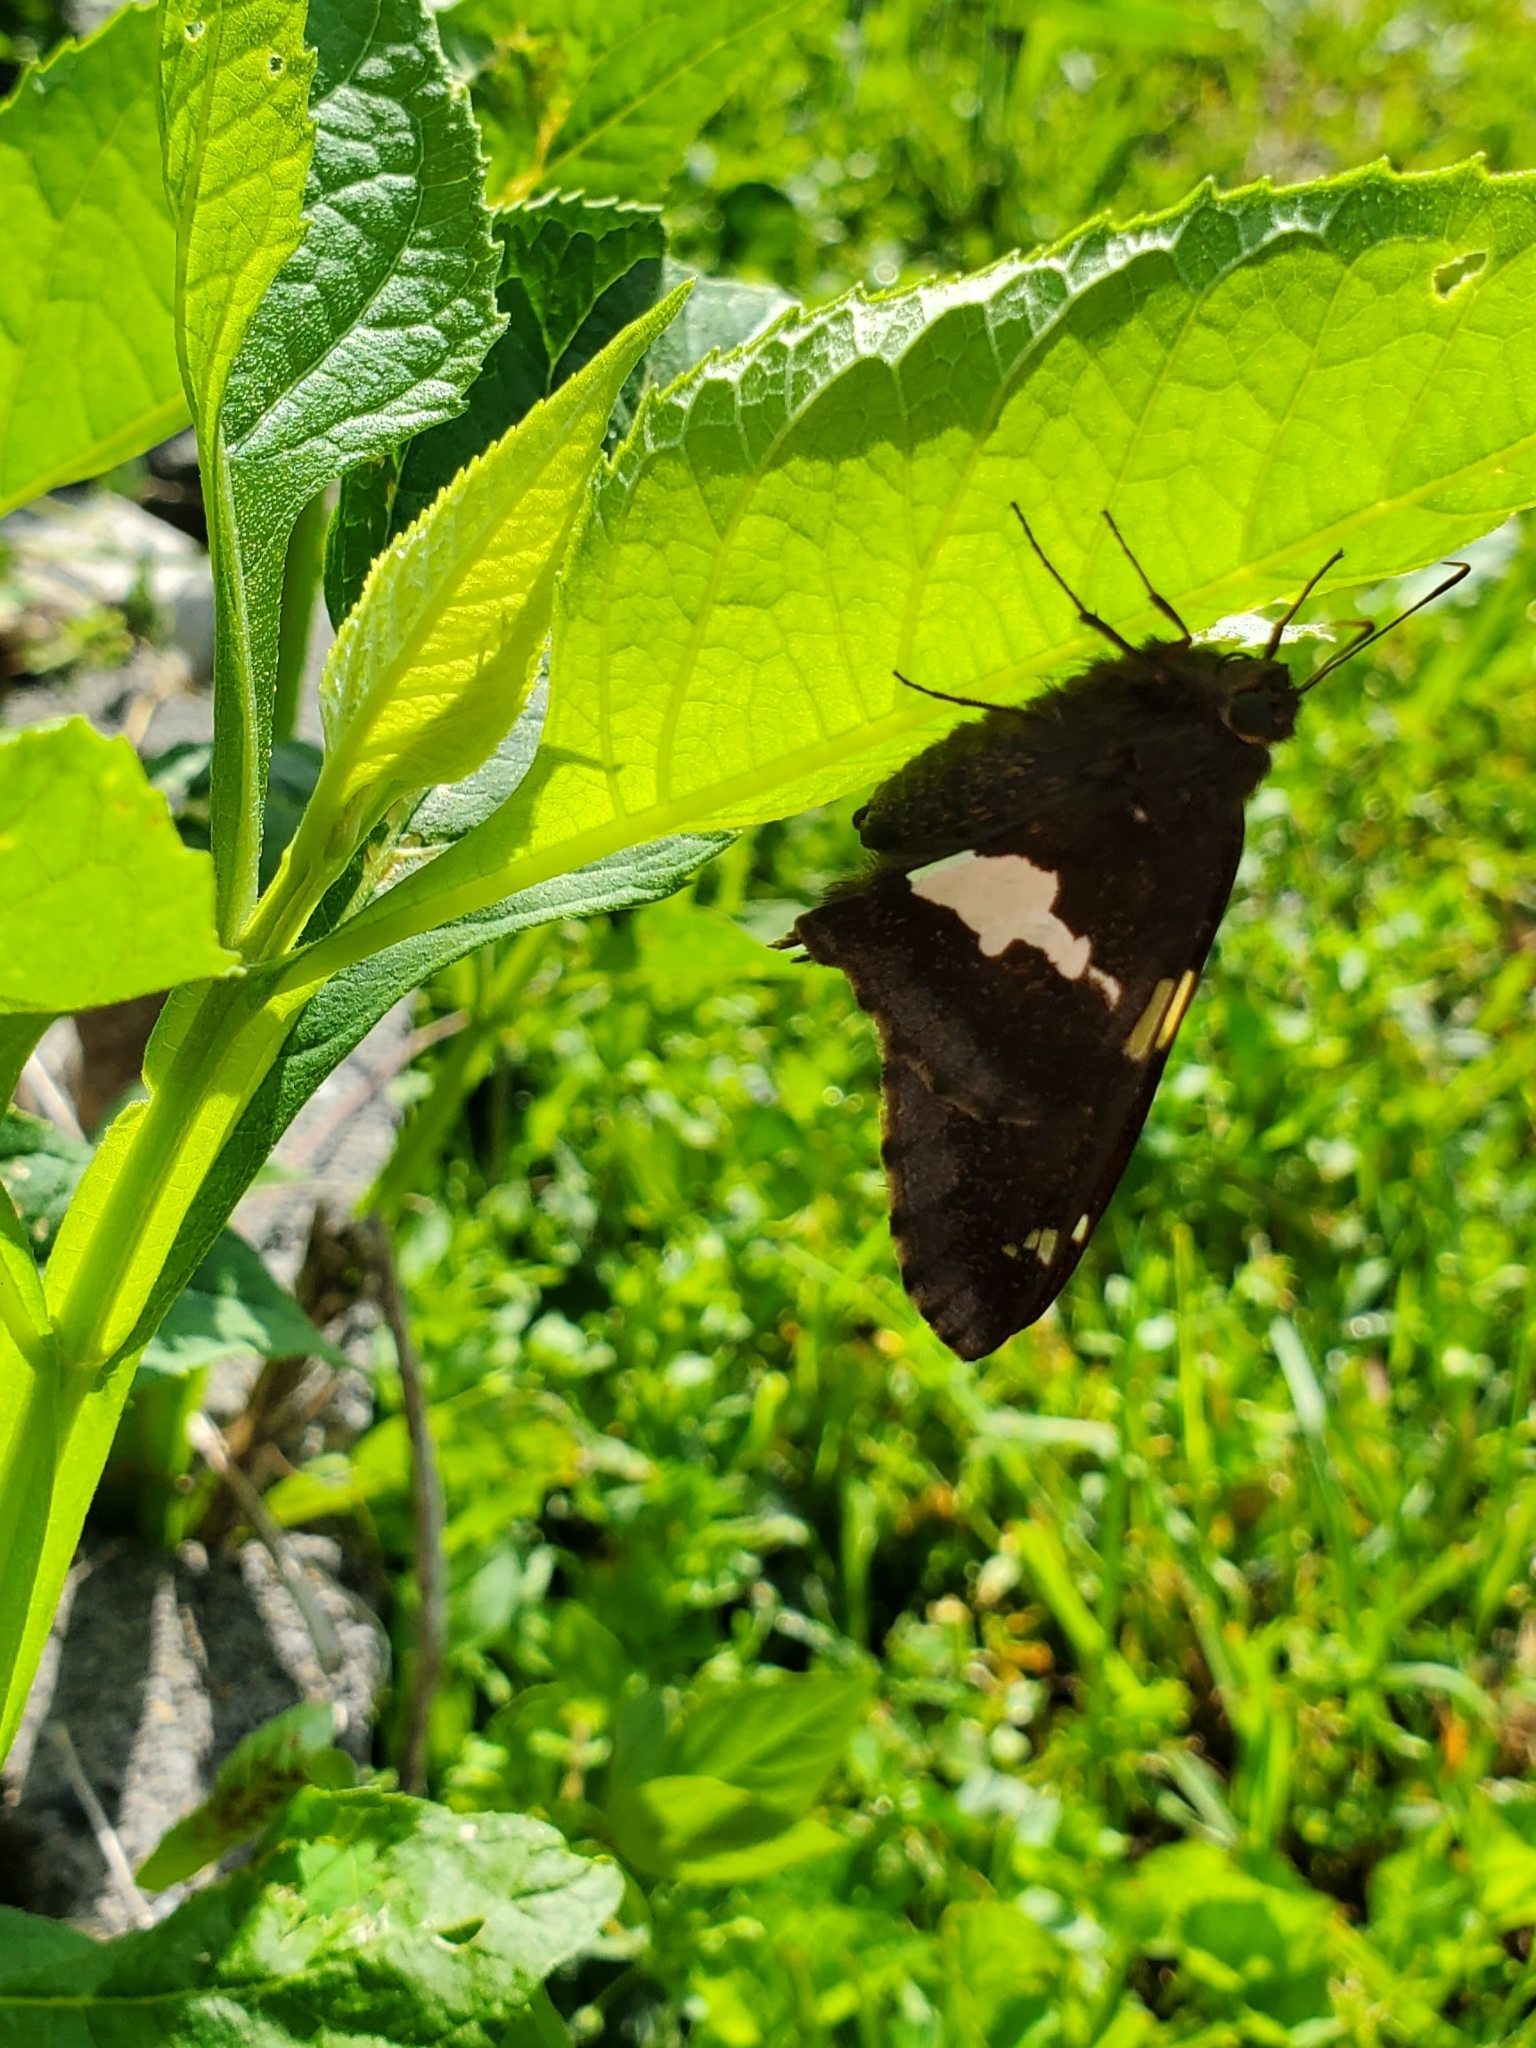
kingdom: Animalia
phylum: Arthropoda
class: Insecta
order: Lepidoptera
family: Hesperiidae
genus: Epargyreus
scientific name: Epargyreus clarus
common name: Silver-spotted skipper
